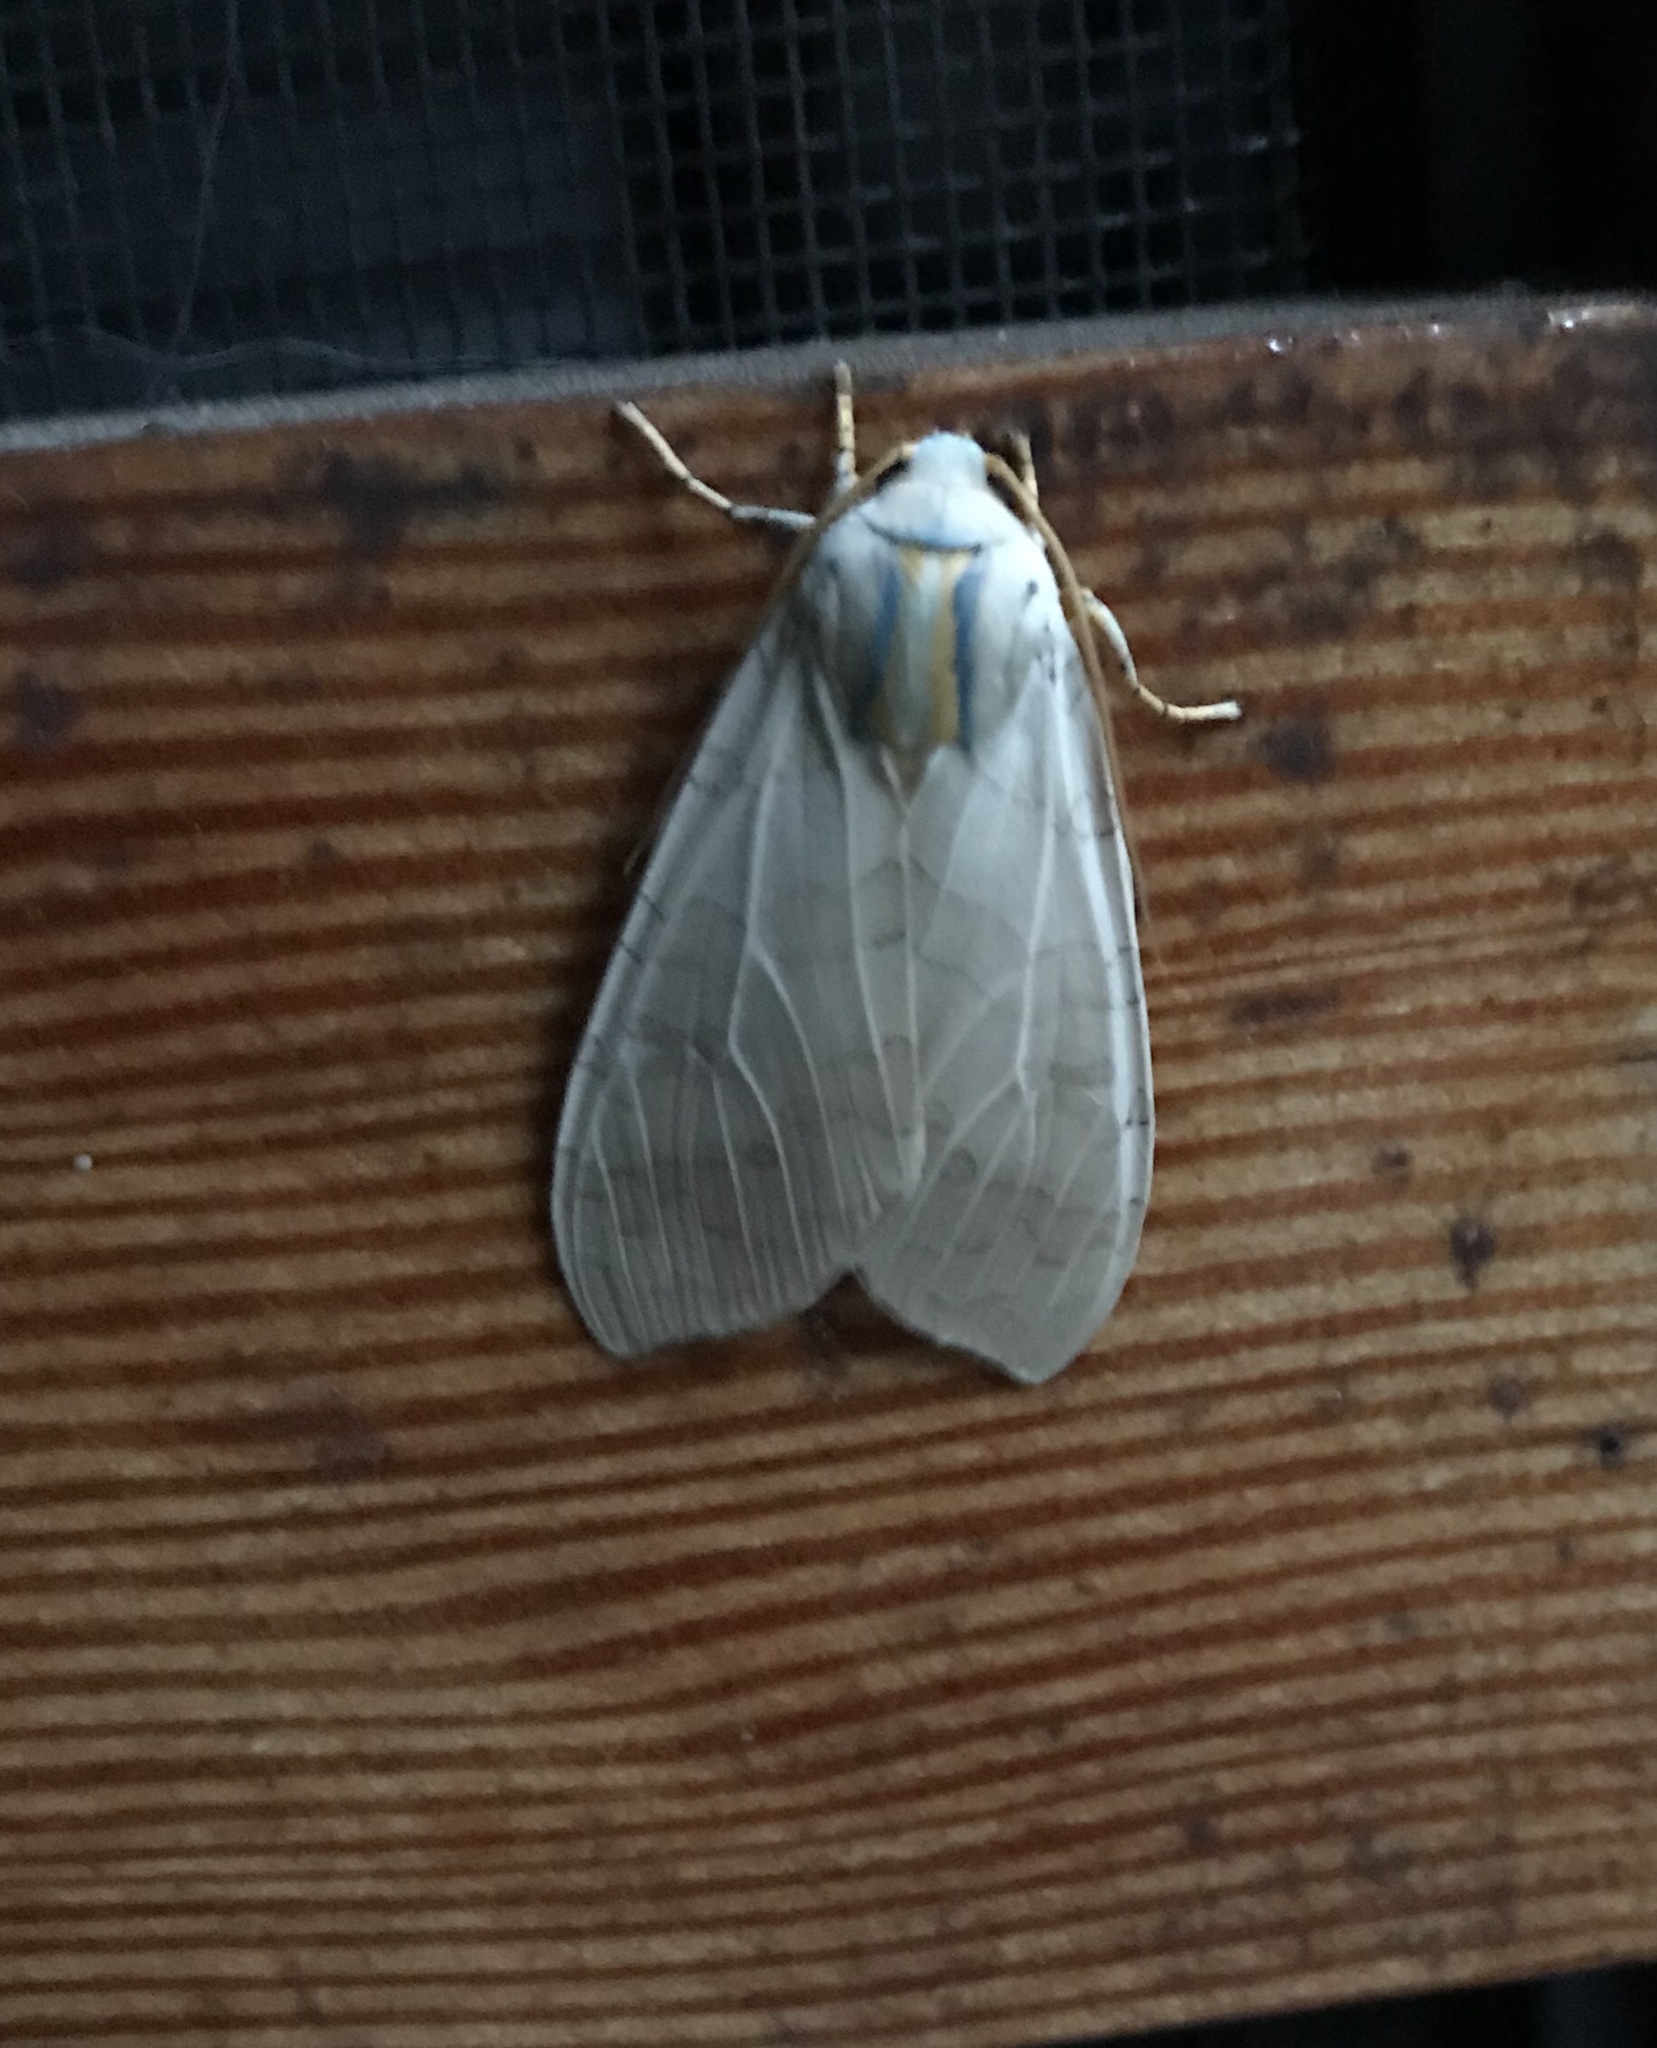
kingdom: Animalia
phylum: Arthropoda
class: Insecta
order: Lepidoptera
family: Erebidae
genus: Halysidota
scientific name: Halysidota
